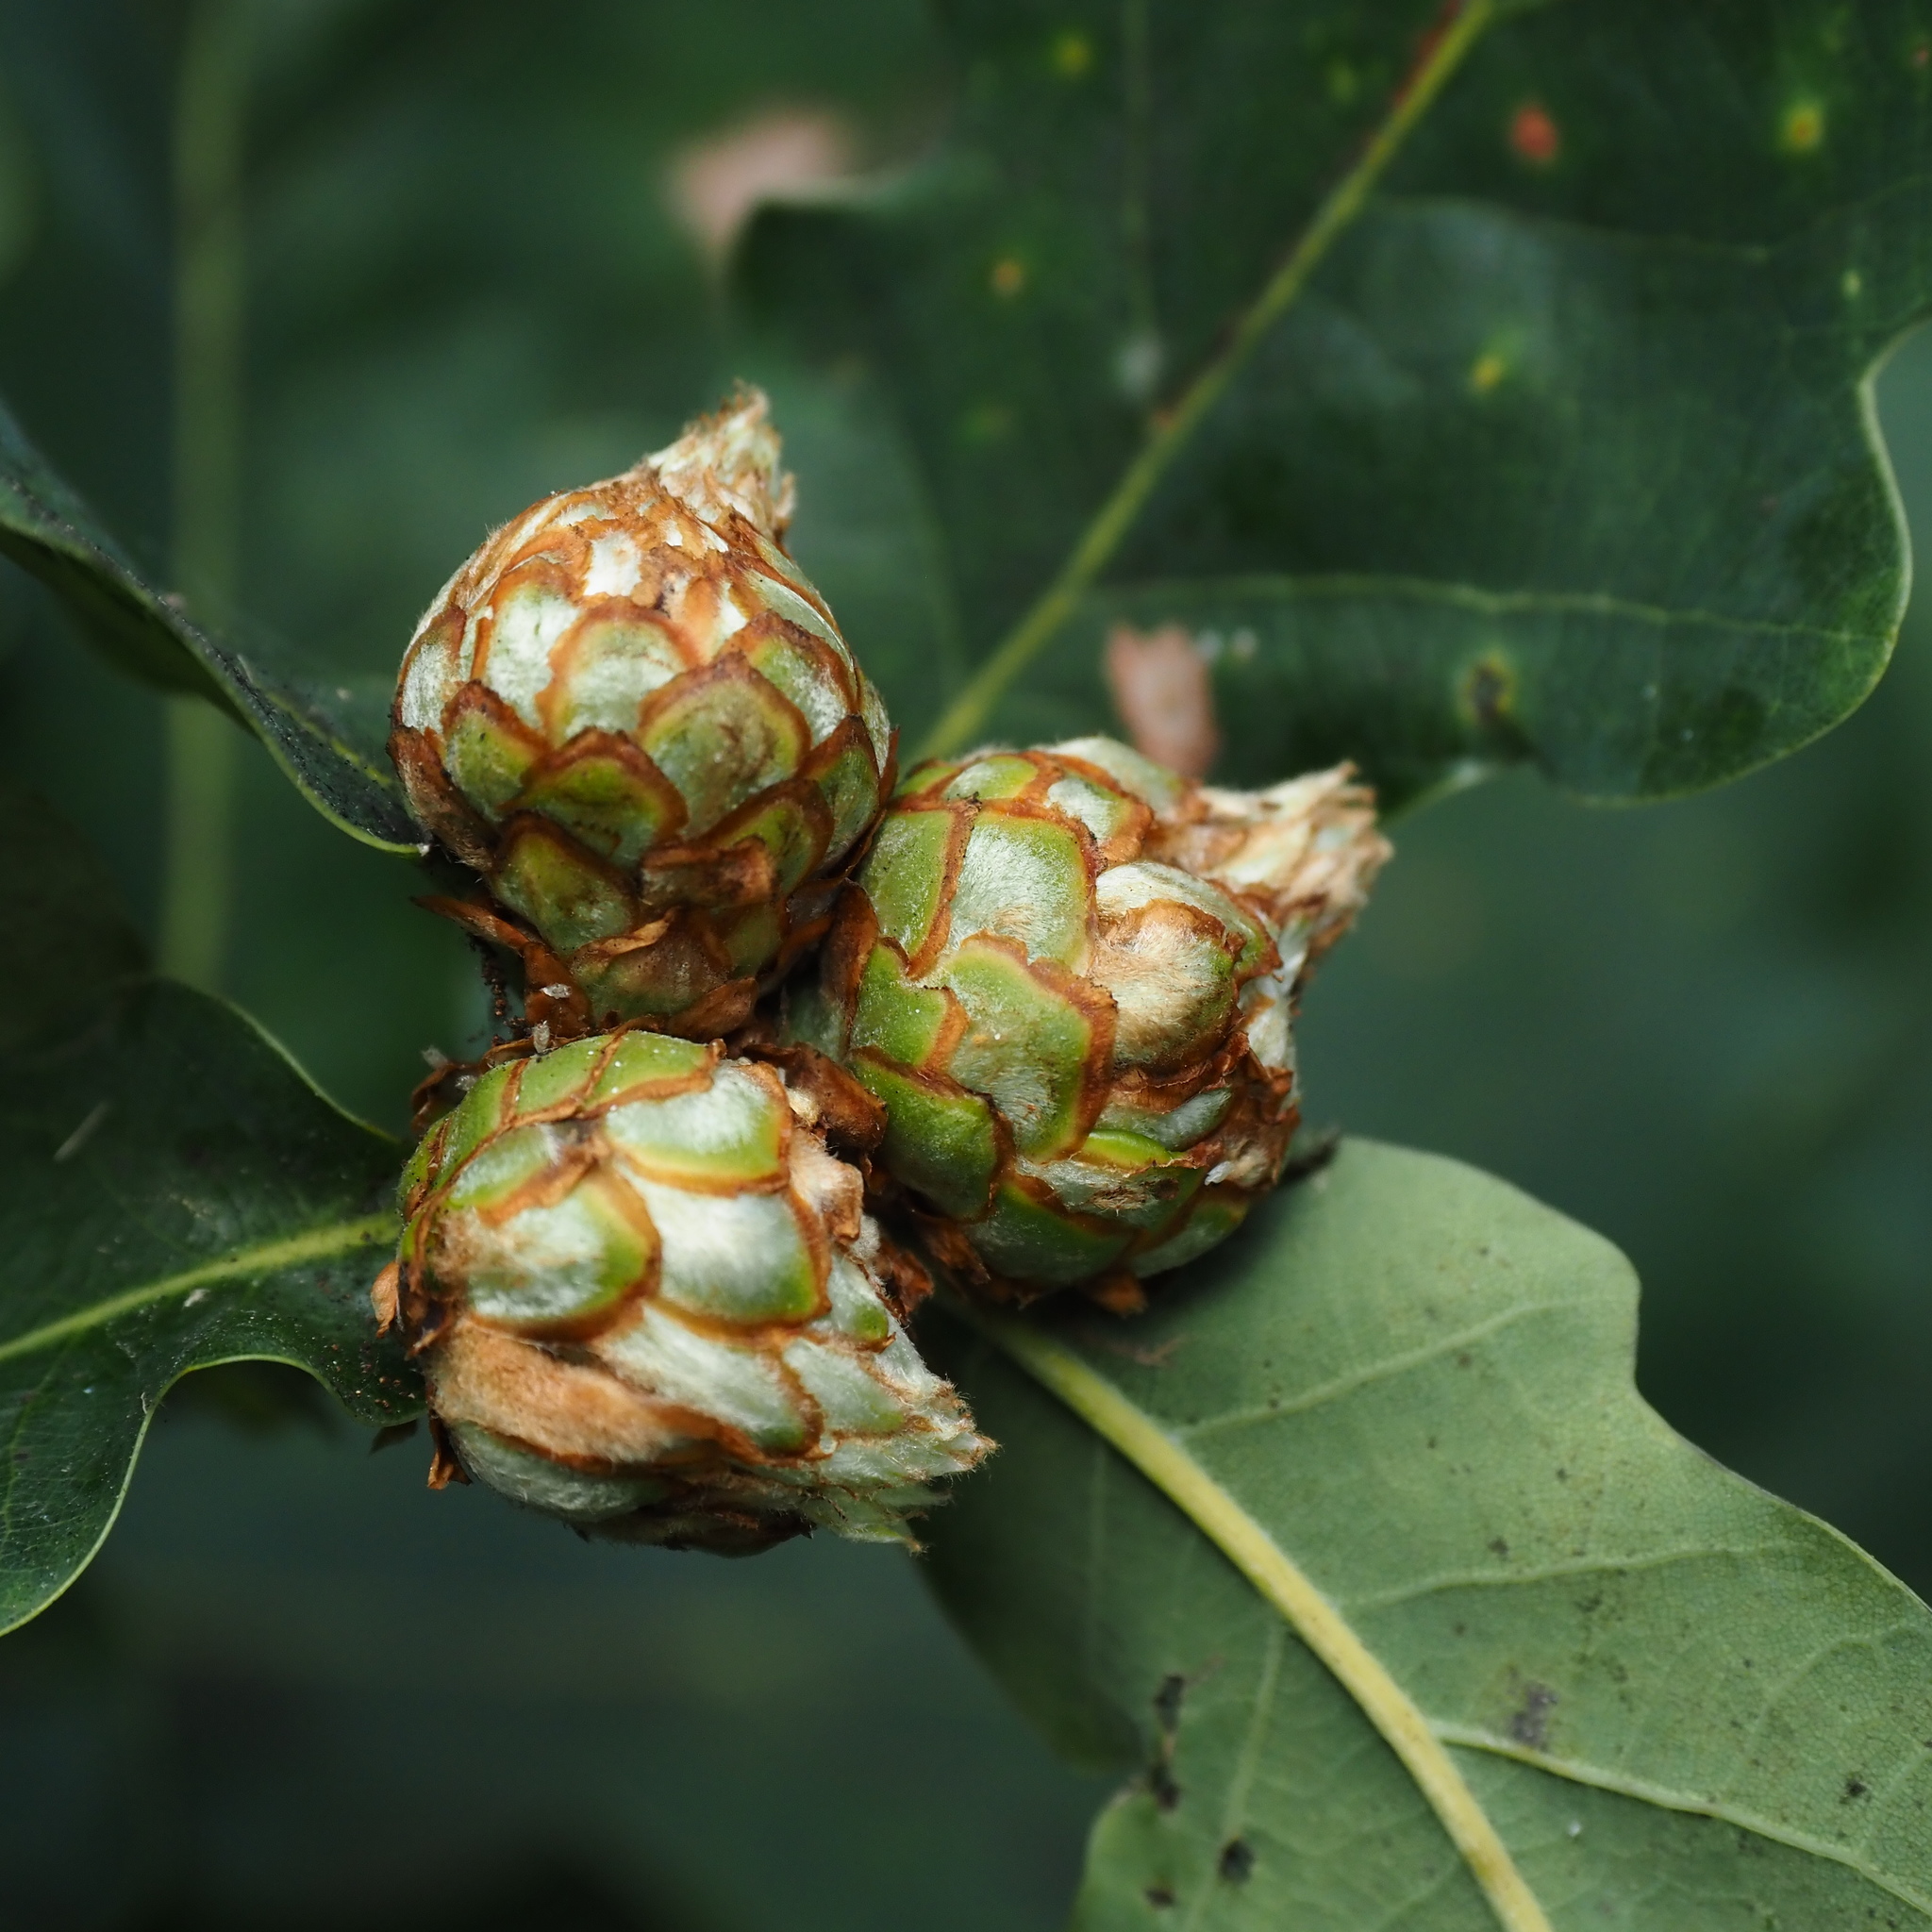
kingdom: Animalia
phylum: Arthropoda
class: Insecta
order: Hymenoptera
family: Cynipidae
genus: Andricus
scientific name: Andricus foecundatrix
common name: Artichoke gall
